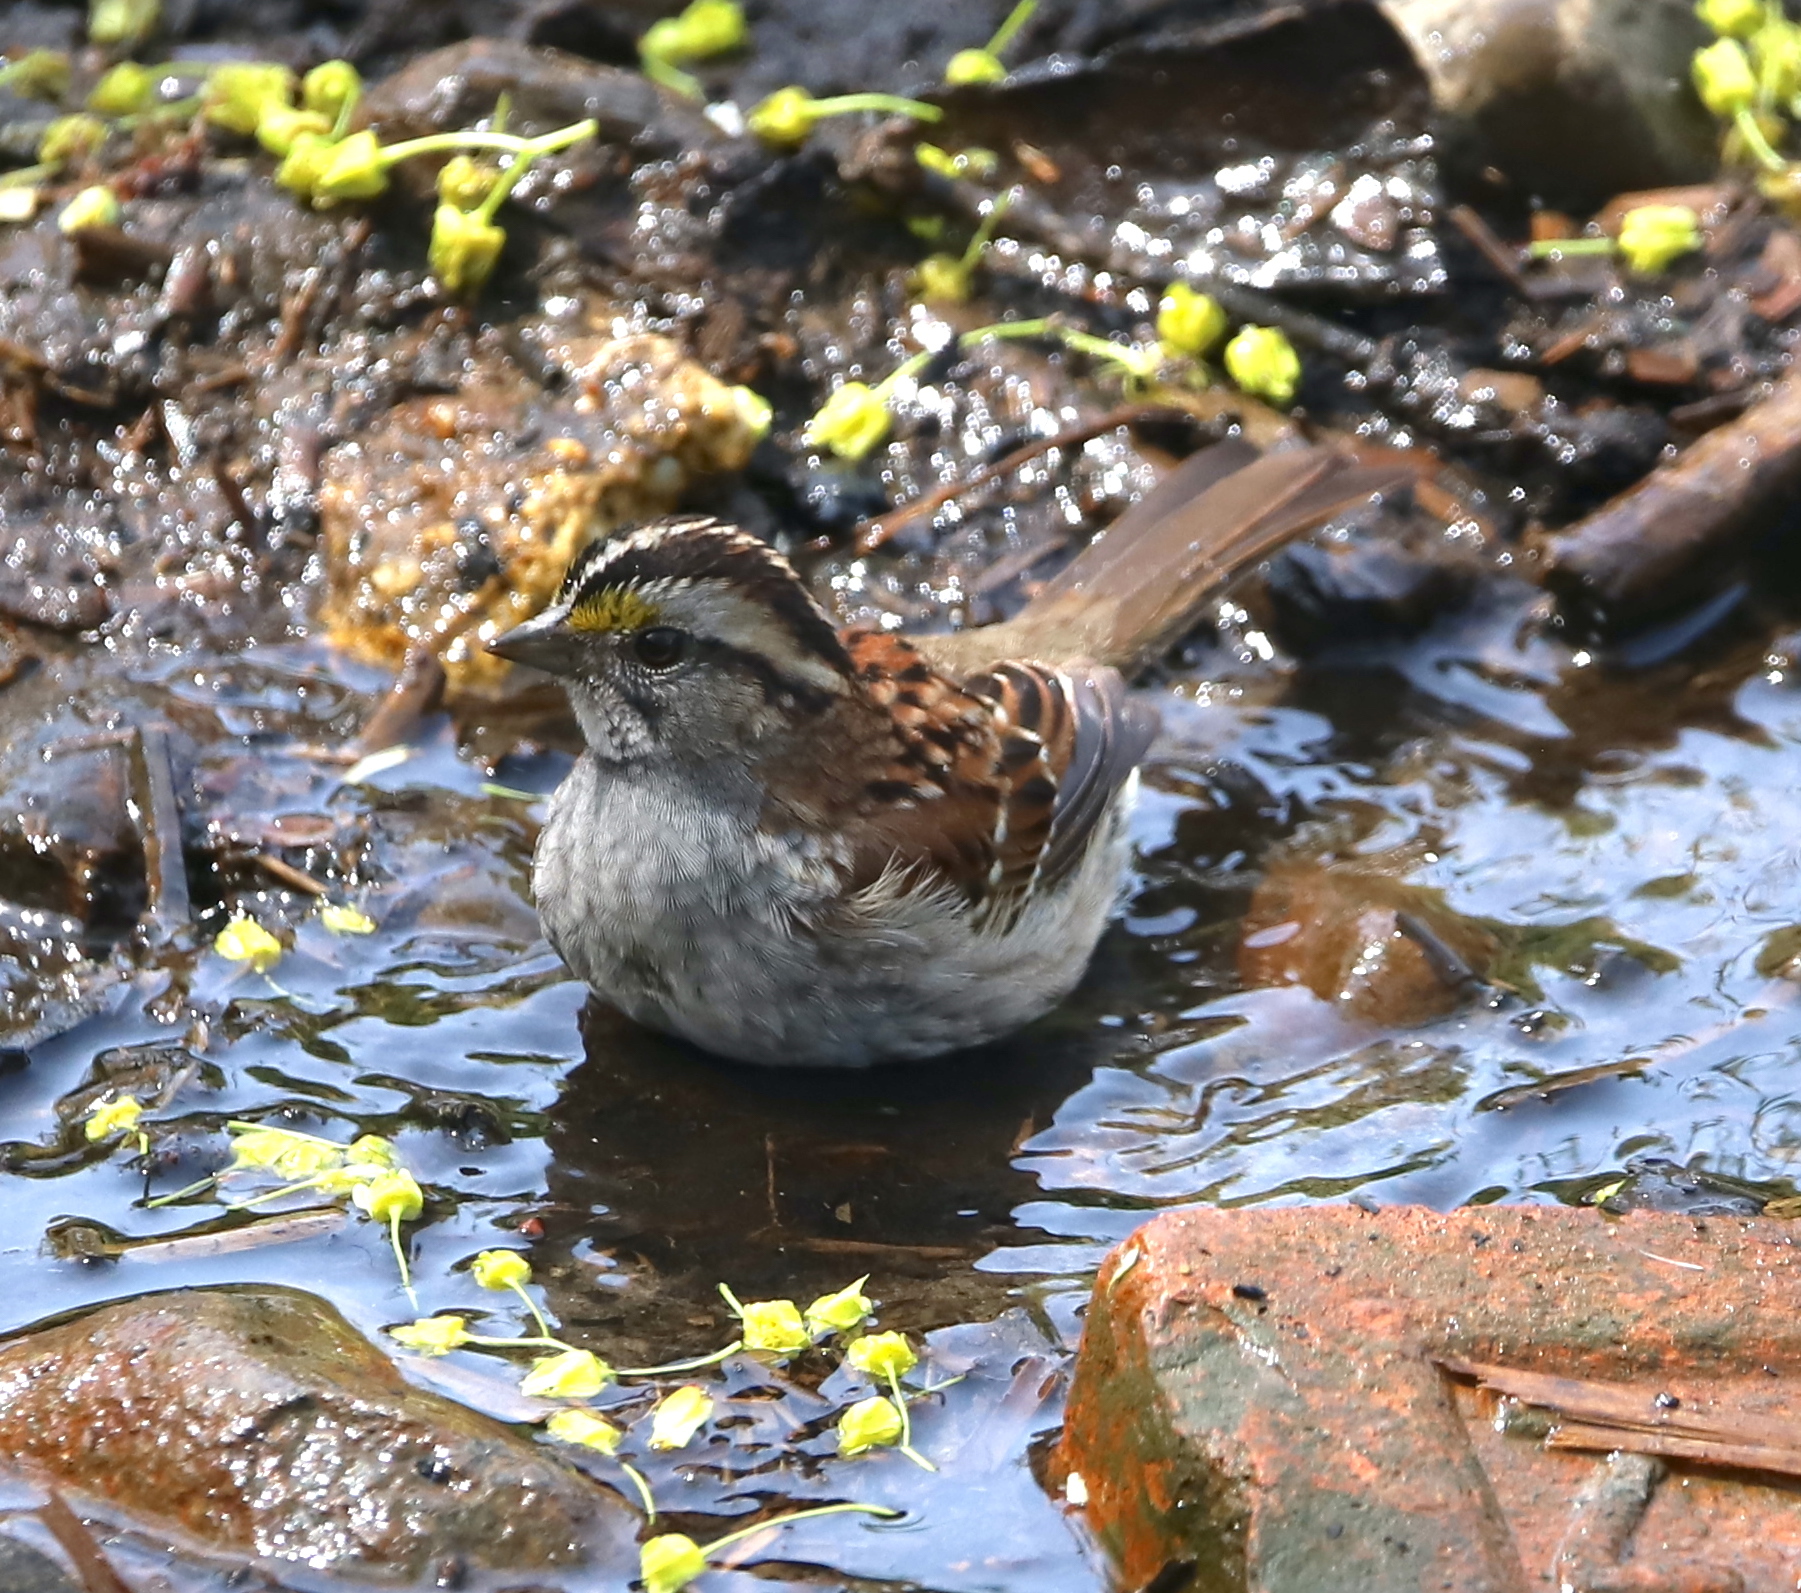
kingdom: Animalia
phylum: Chordata
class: Aves
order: Passeriformes
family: Passerellidae
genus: Zonotrichia
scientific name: Zonotrichia albicollis
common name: White-throated sparrow
